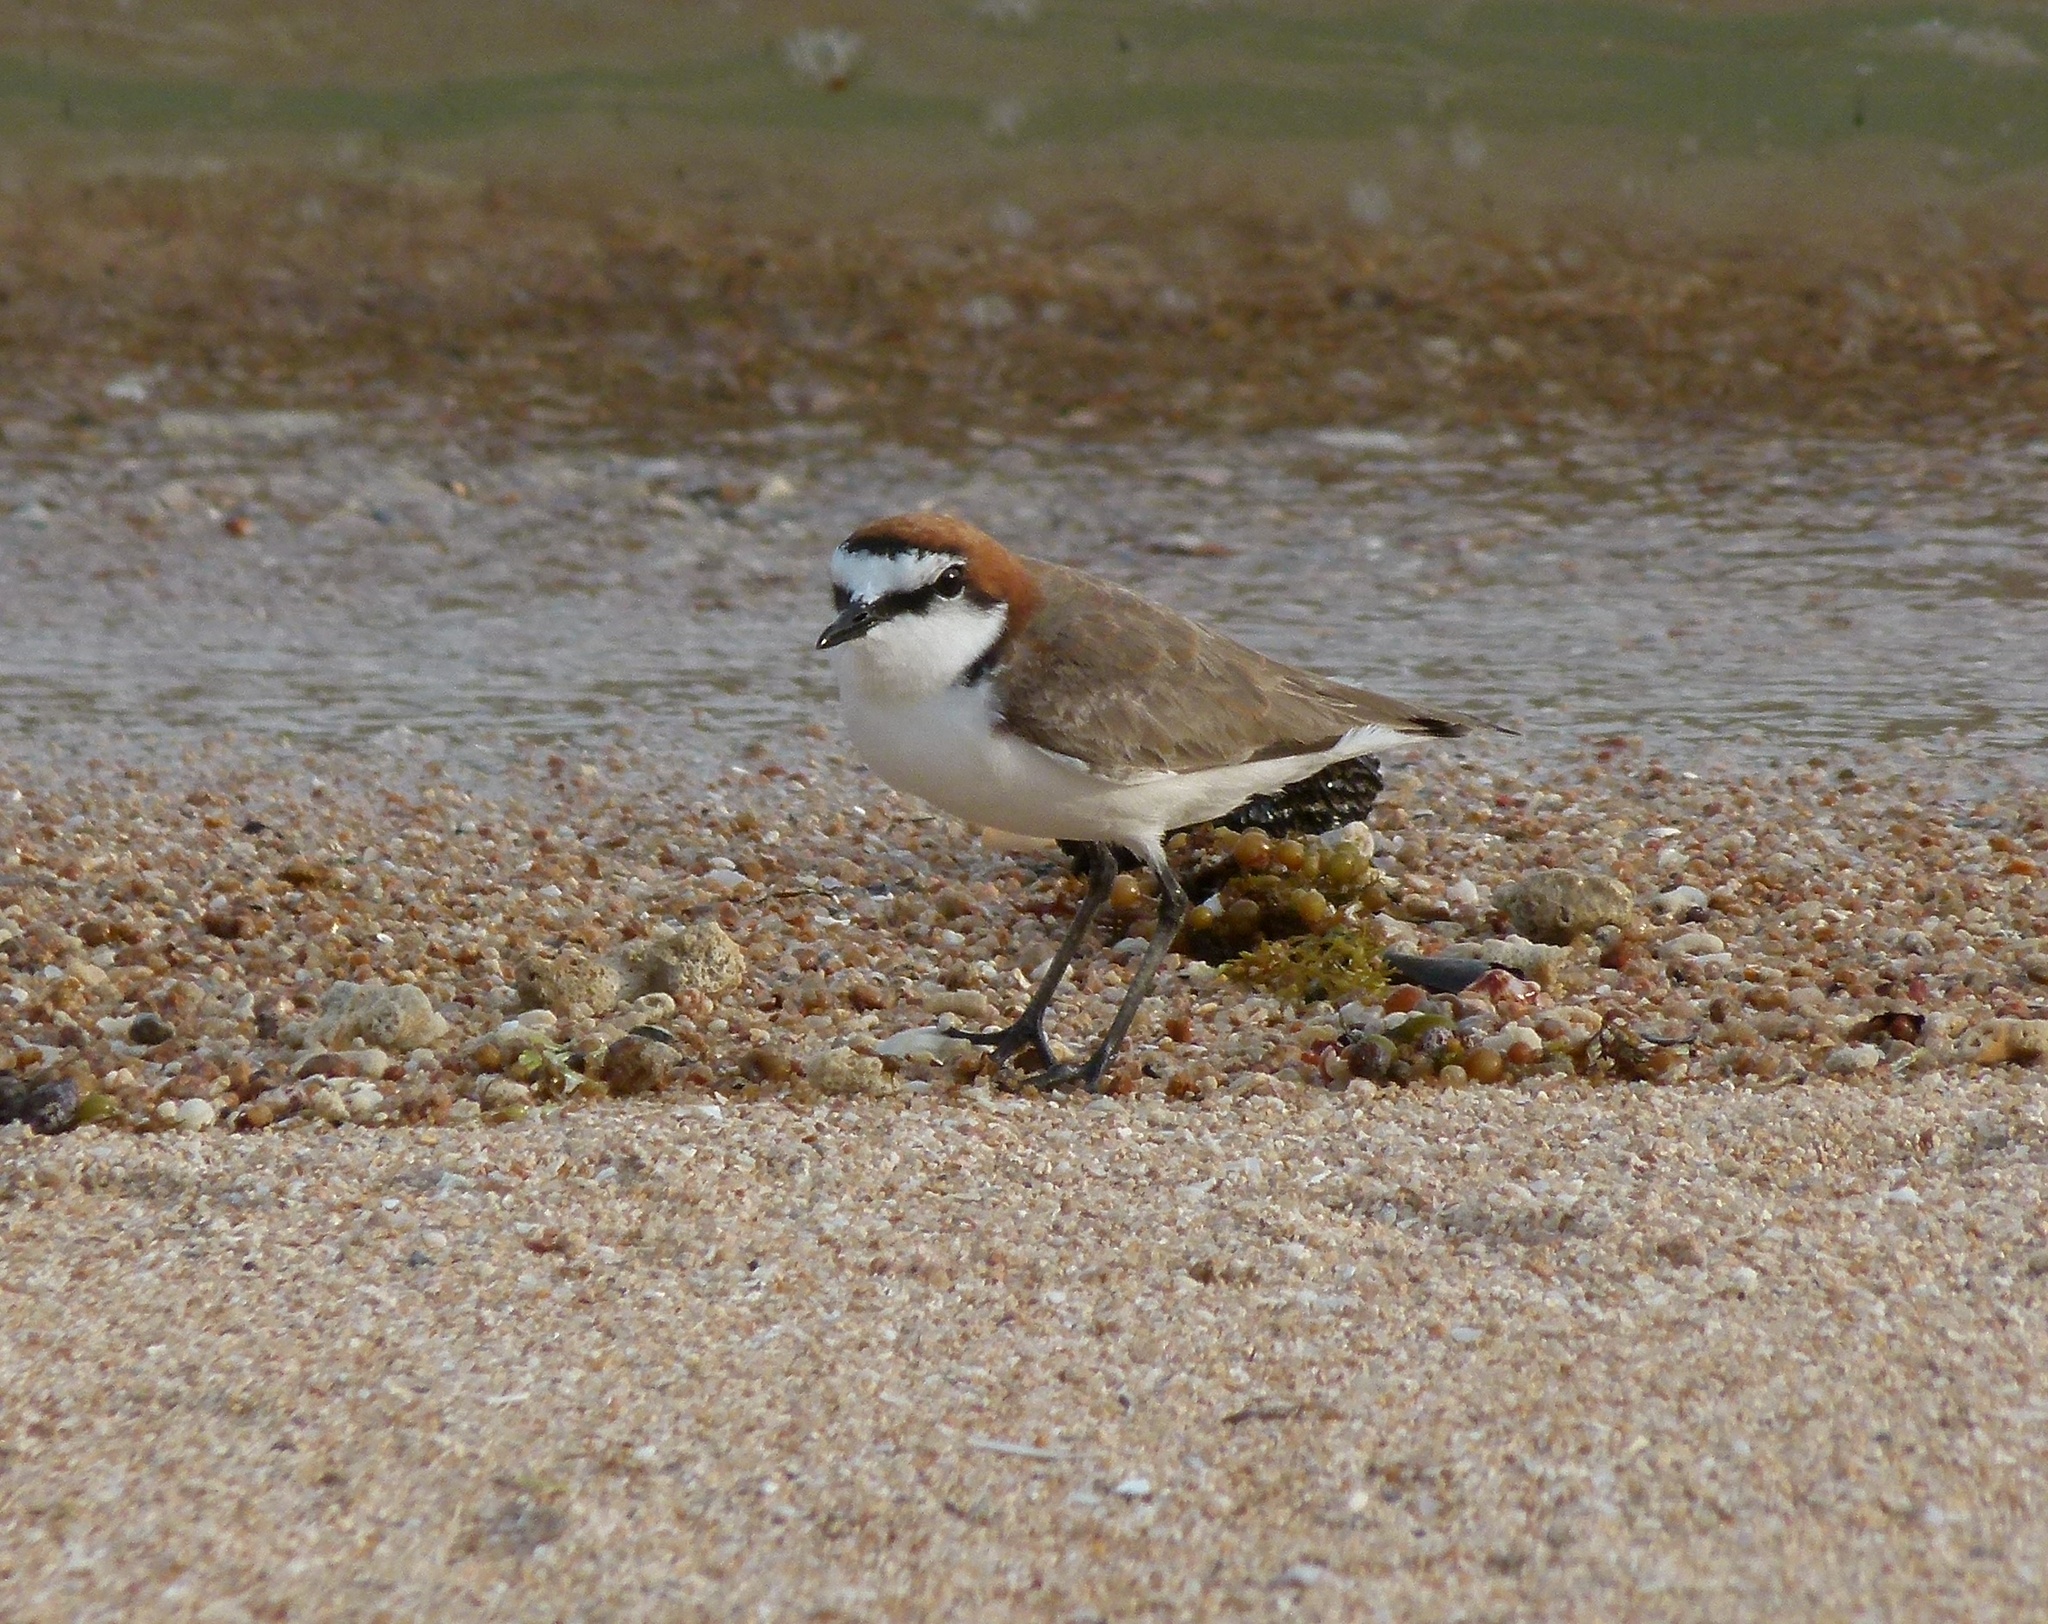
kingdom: Animalia
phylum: Chordata
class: Aves
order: Charadriiformes
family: Charadriidae
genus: Anarhynchus
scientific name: Anarhynchus
